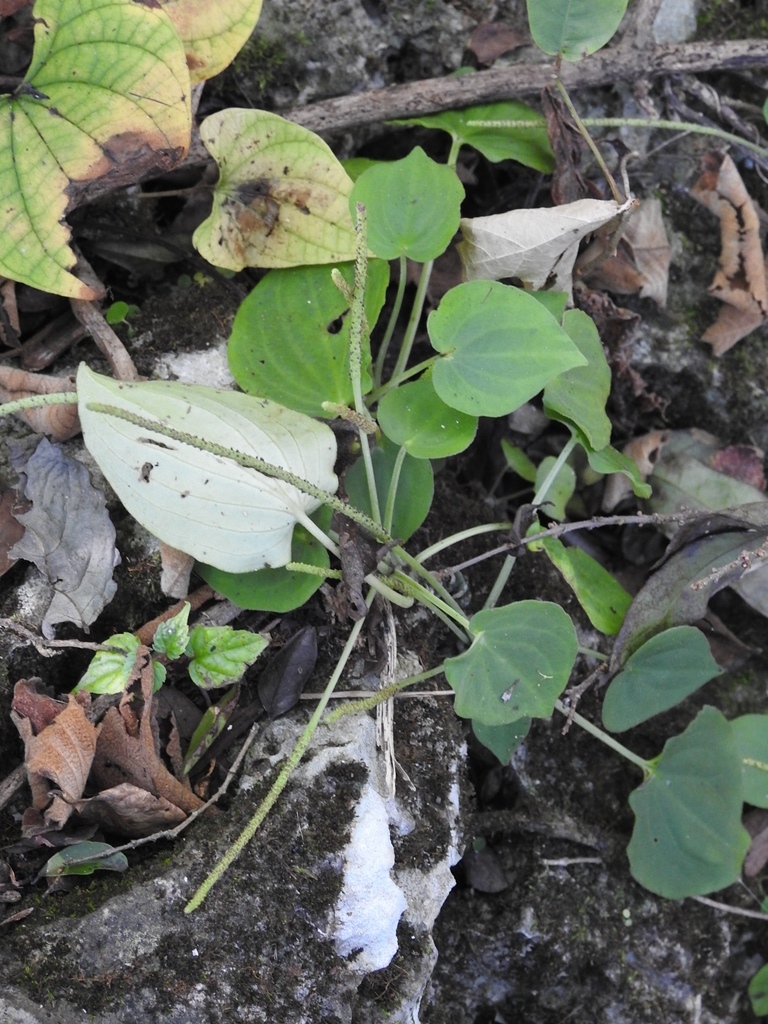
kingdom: Plantae
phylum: Tracheophyta
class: Magnoliopsida
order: Piperales
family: Piperaceae
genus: Peperomia
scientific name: Peperomia lanceolatopeltata
